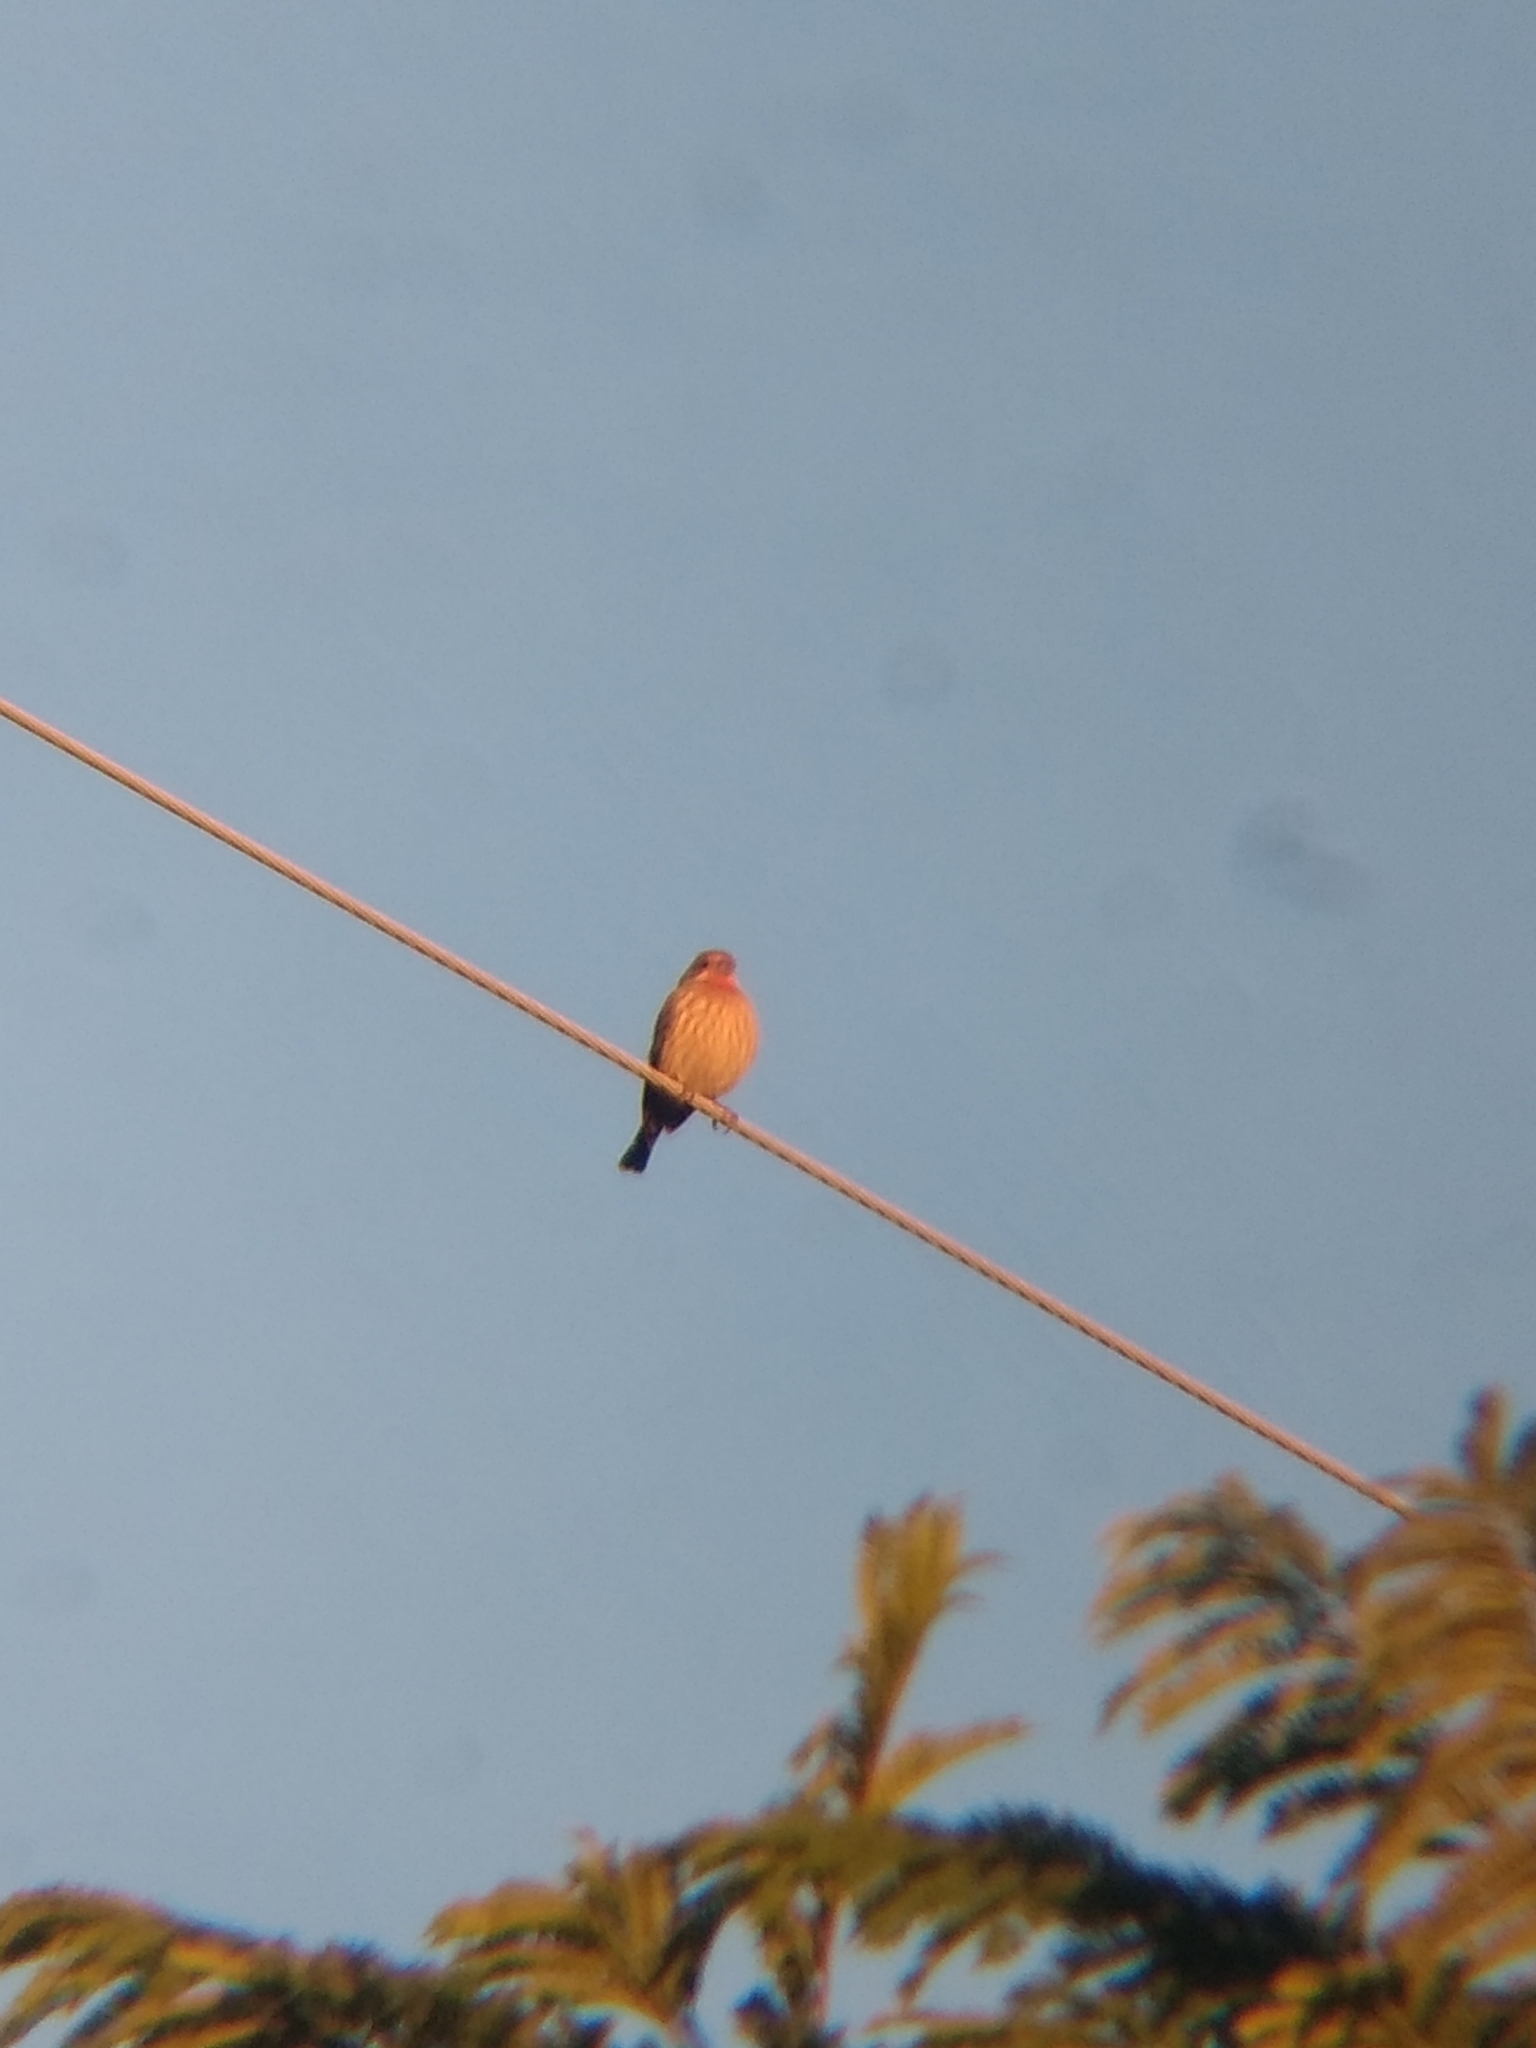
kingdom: Animalia
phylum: Chordata
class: Aves
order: Passeriformes
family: Fringillidae
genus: Haemorhous
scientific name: Haemorhous mexicanus
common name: House finch
